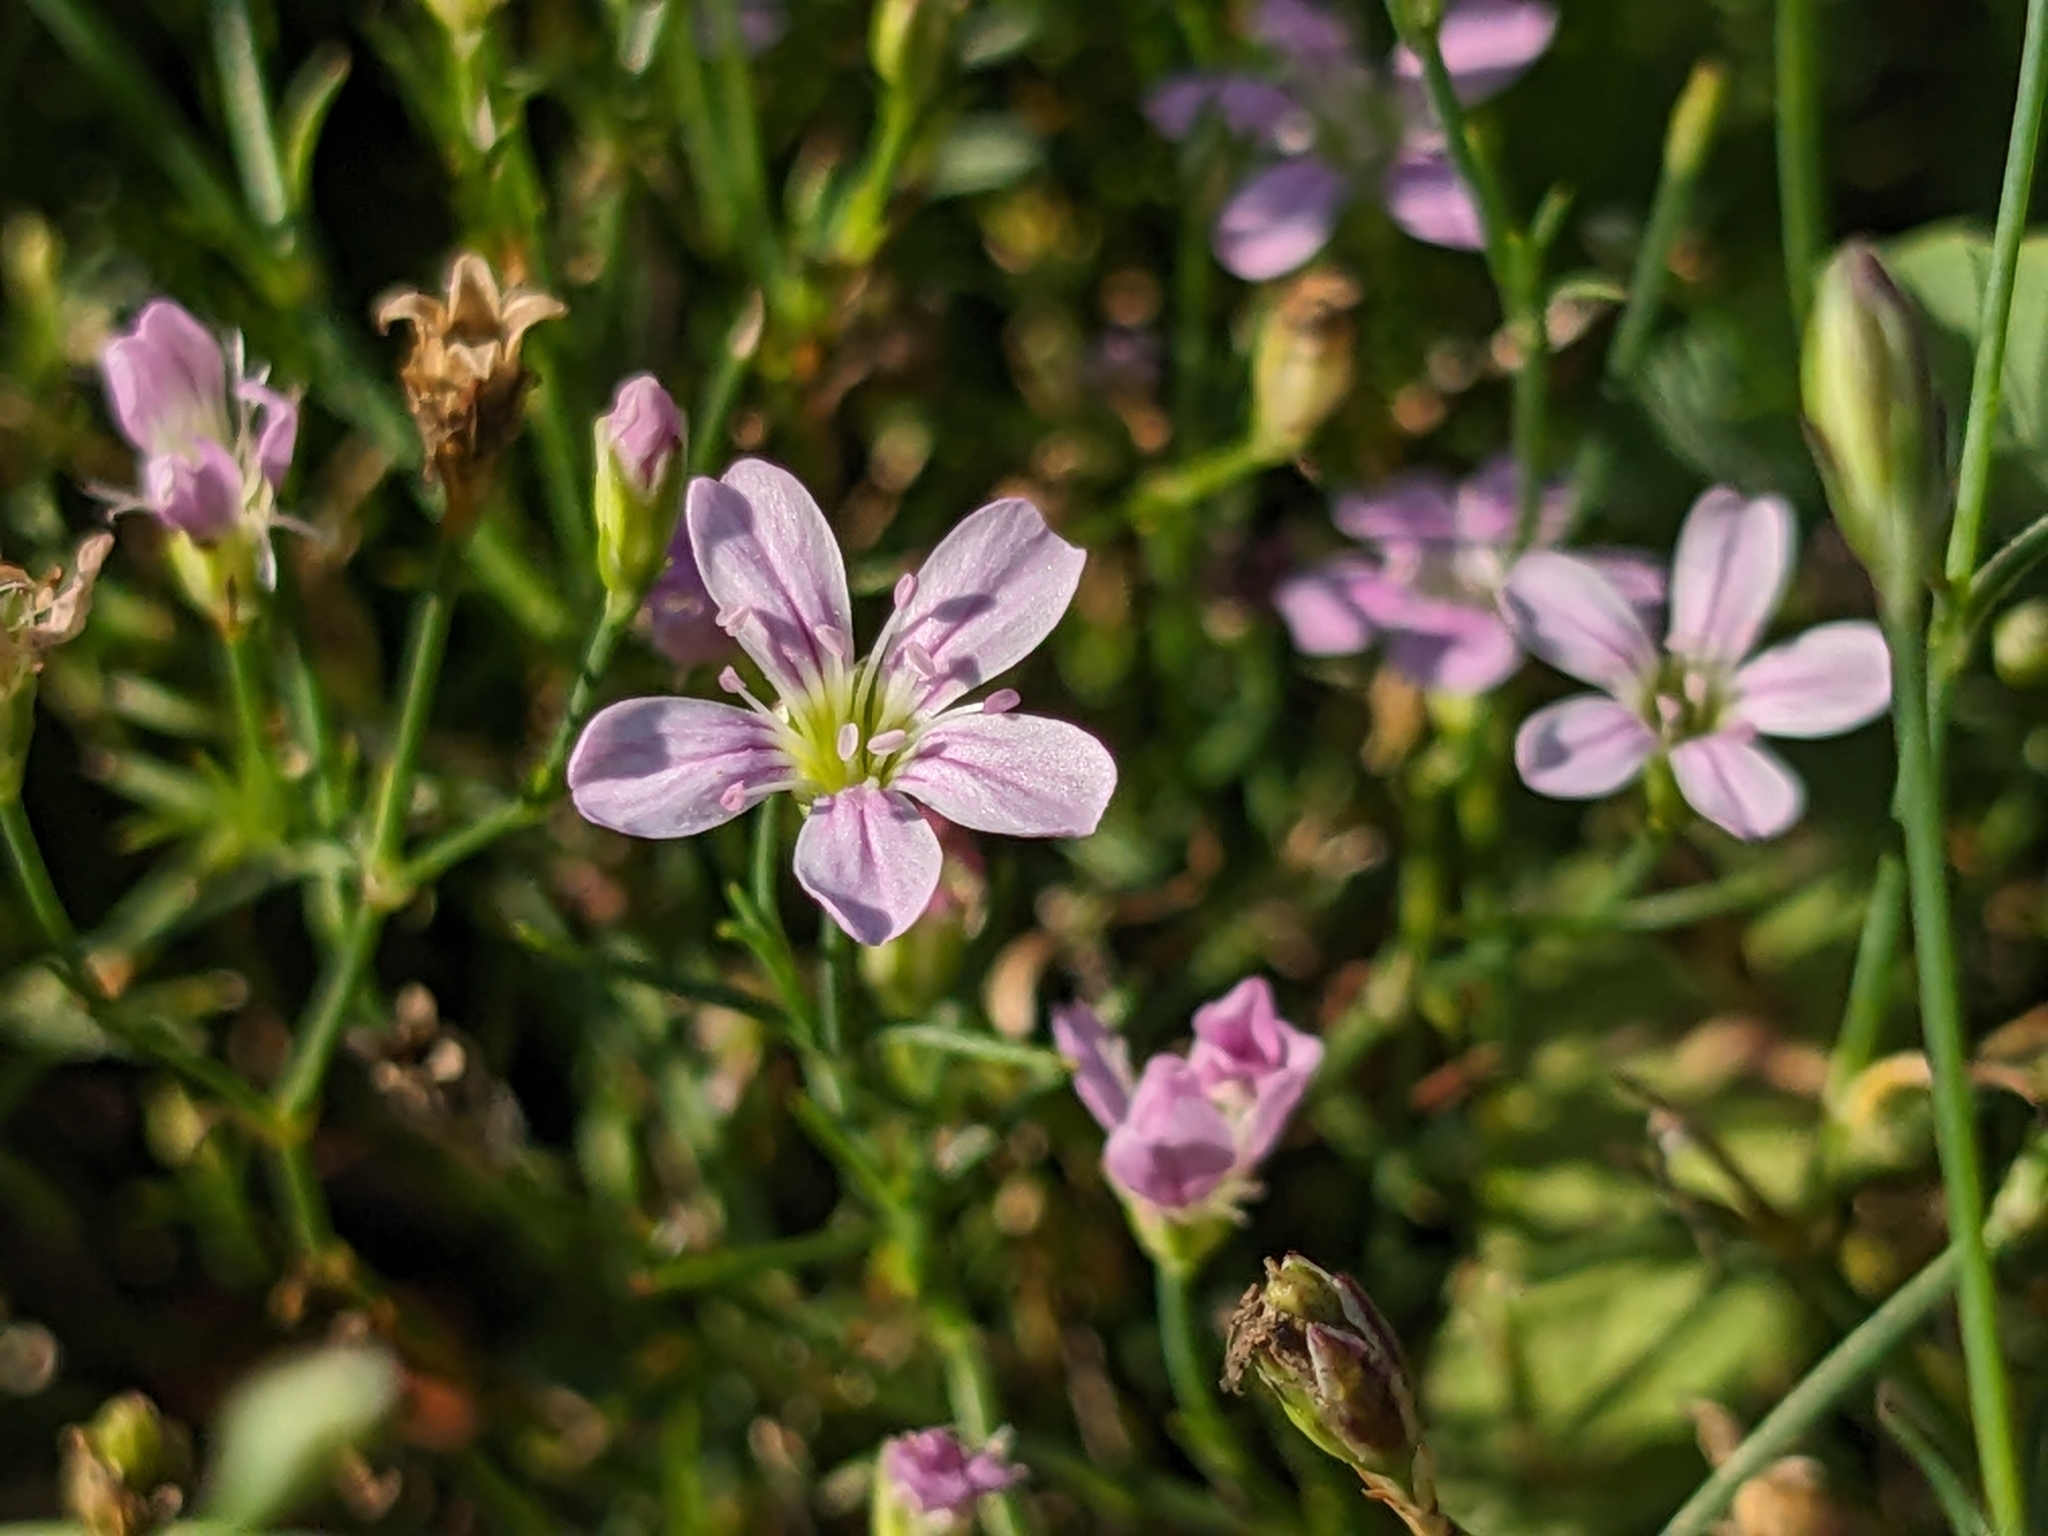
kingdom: Plantae
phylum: Tracheophyta
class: Magnoliopsida
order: Caryophyllales
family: Caryophyllaceae
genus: Petrorhagia
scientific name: Petrorhagia saxifraga
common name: Tunicflower
